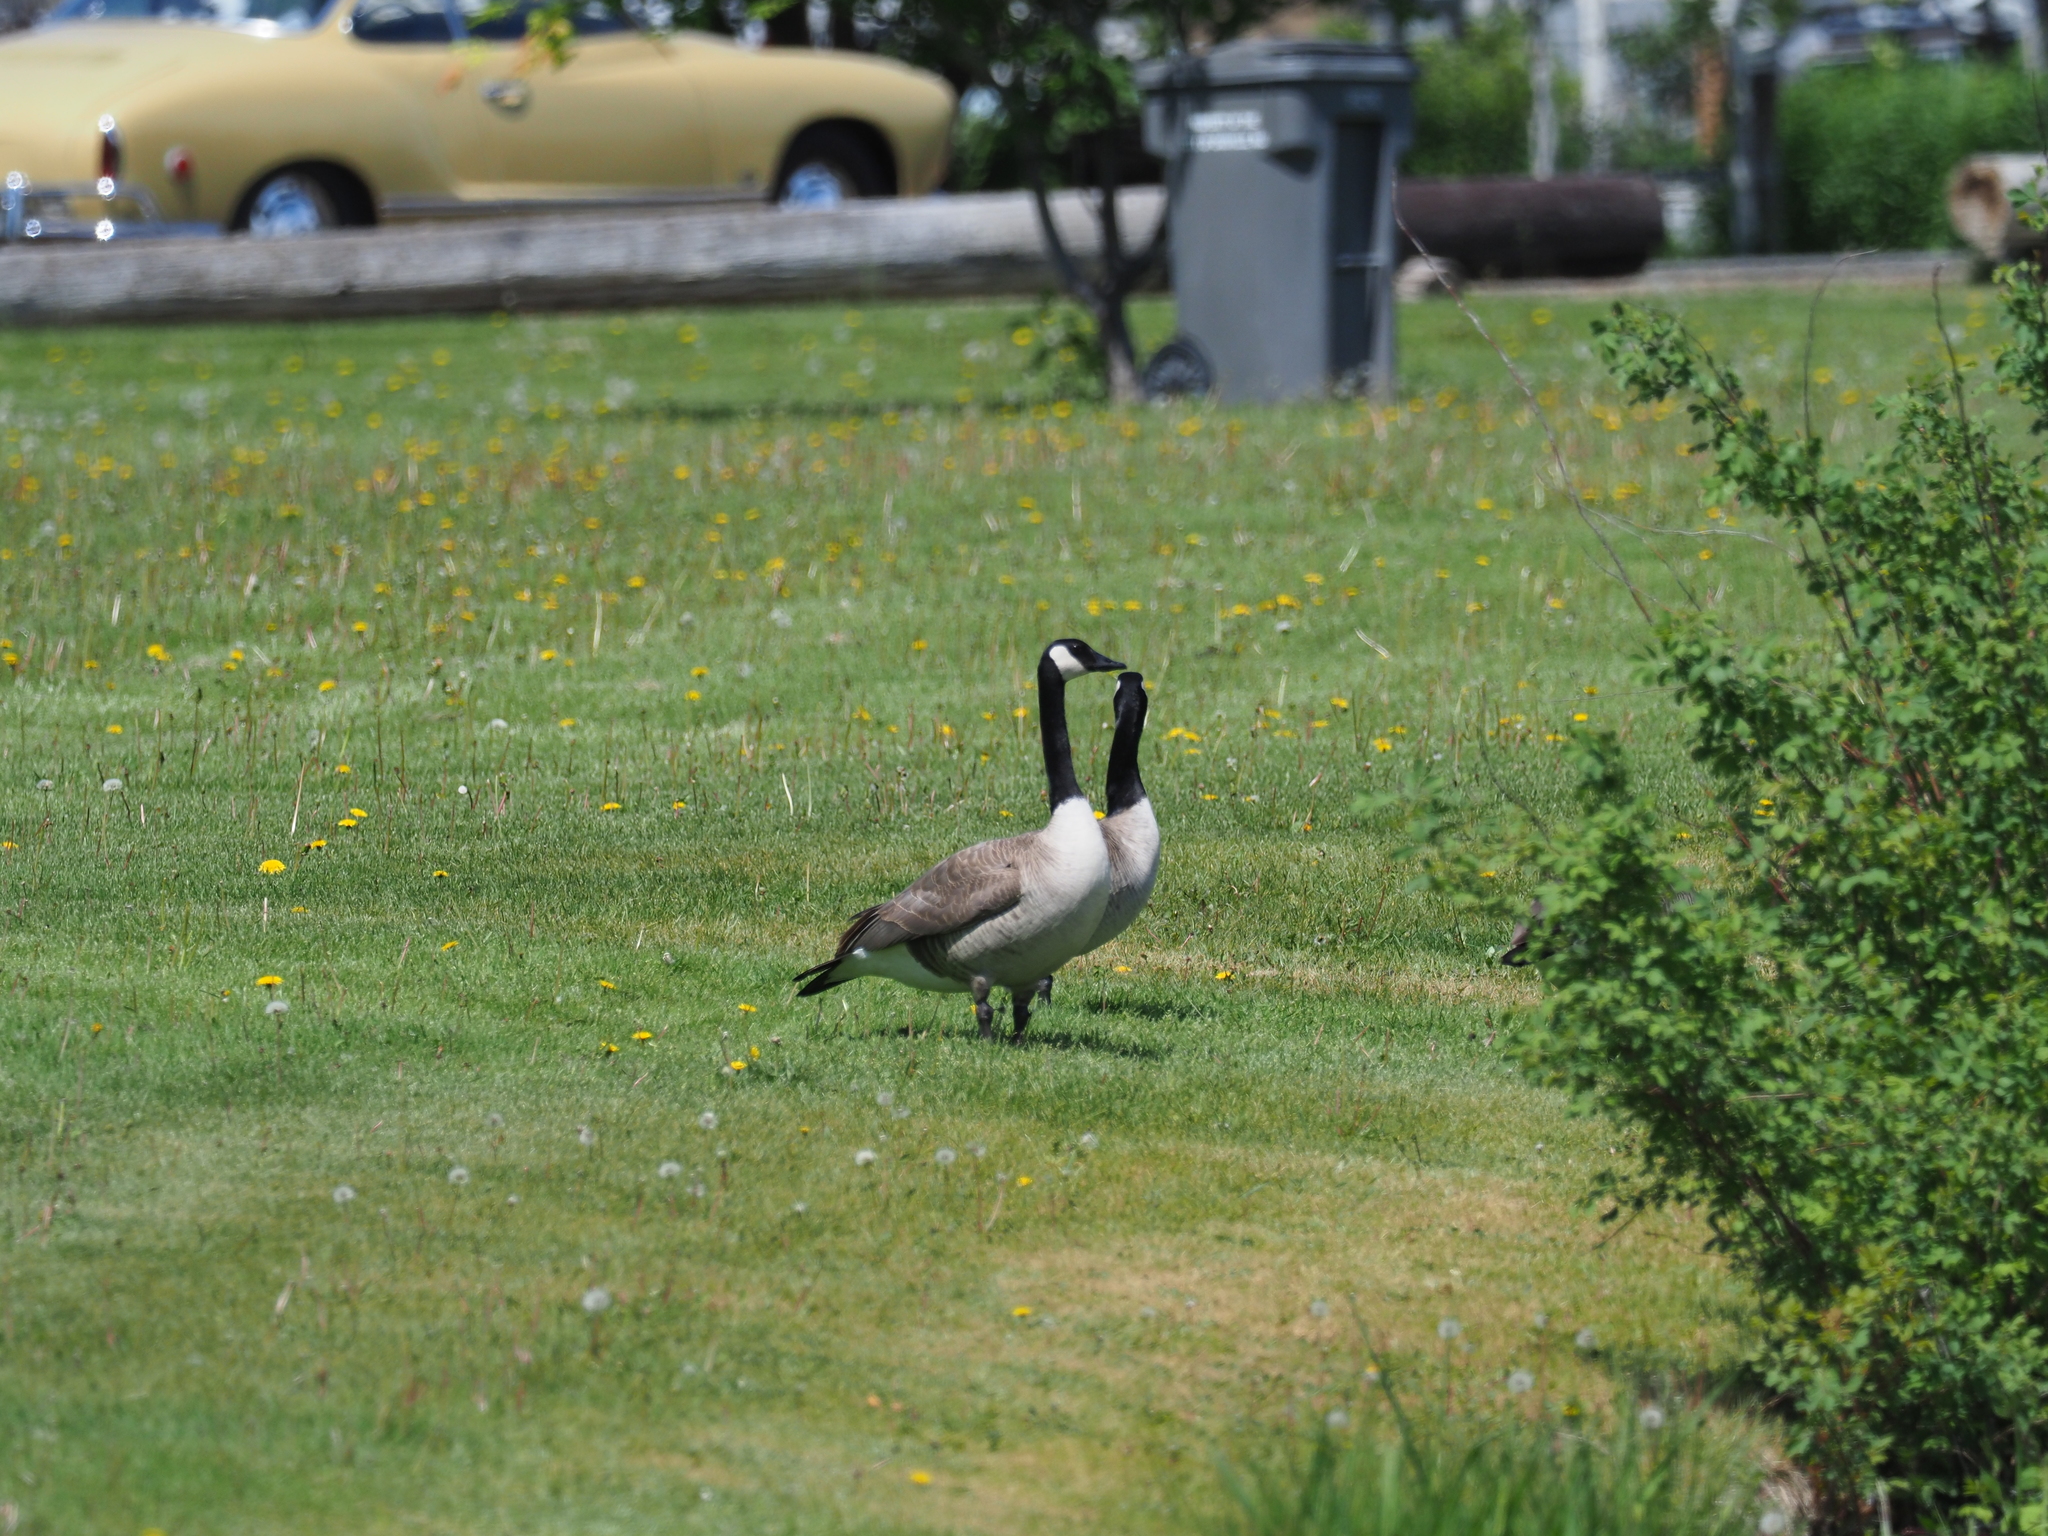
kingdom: Animalia
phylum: Chordata
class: Aves
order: Anseriformes
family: Anatidae
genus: Branta
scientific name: Branta canadensis
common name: Canada goose
